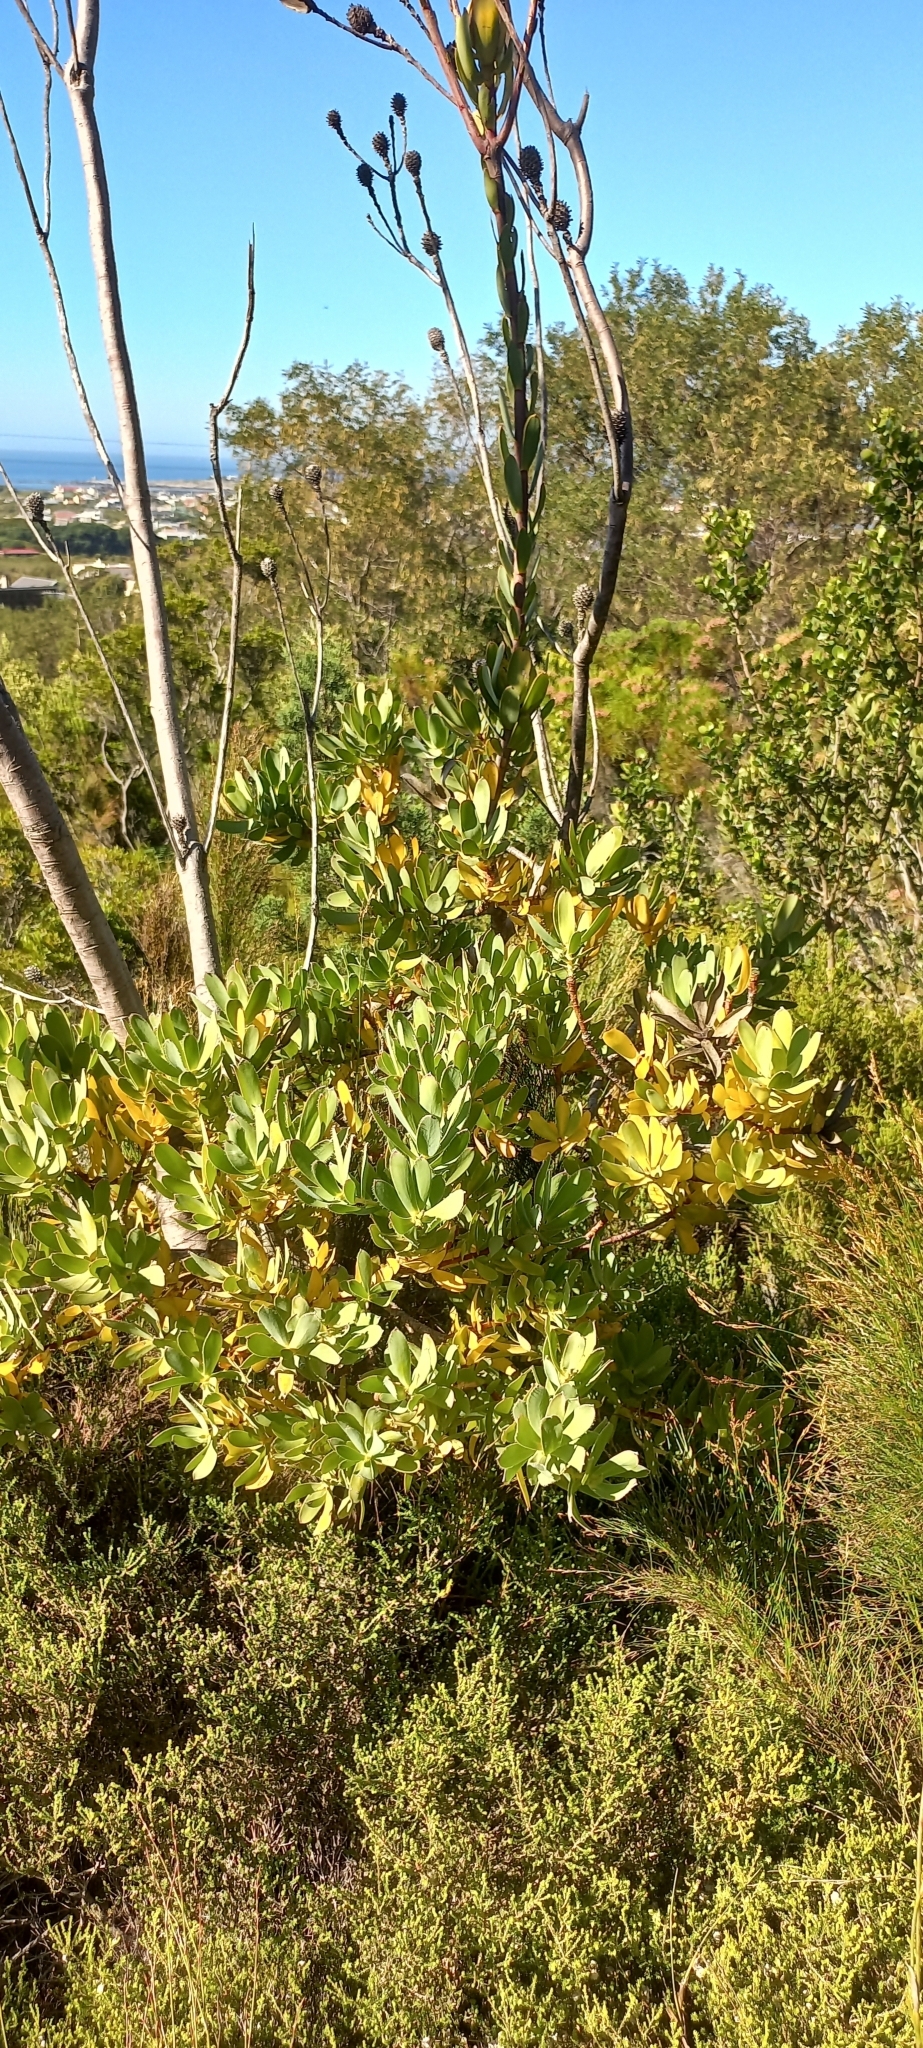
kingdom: Plantae
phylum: Tracheophyta
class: Magnoliopsida
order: Proteales
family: Proteaceae
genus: Leucadendron
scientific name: Leucadendron discolor
